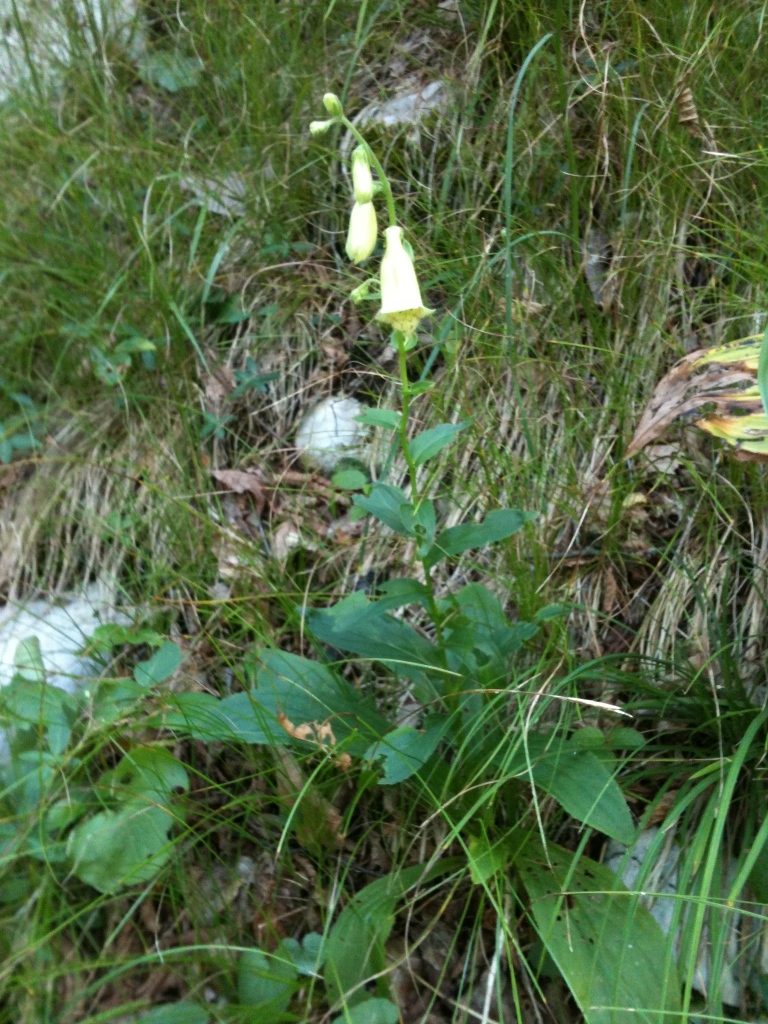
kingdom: Plantae
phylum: Tracheophyta
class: Magnoliopsida
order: Lamiales
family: Plantaginaceae
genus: Digitalis
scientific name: Digitalis grandiflora
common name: Yellow foxglove
